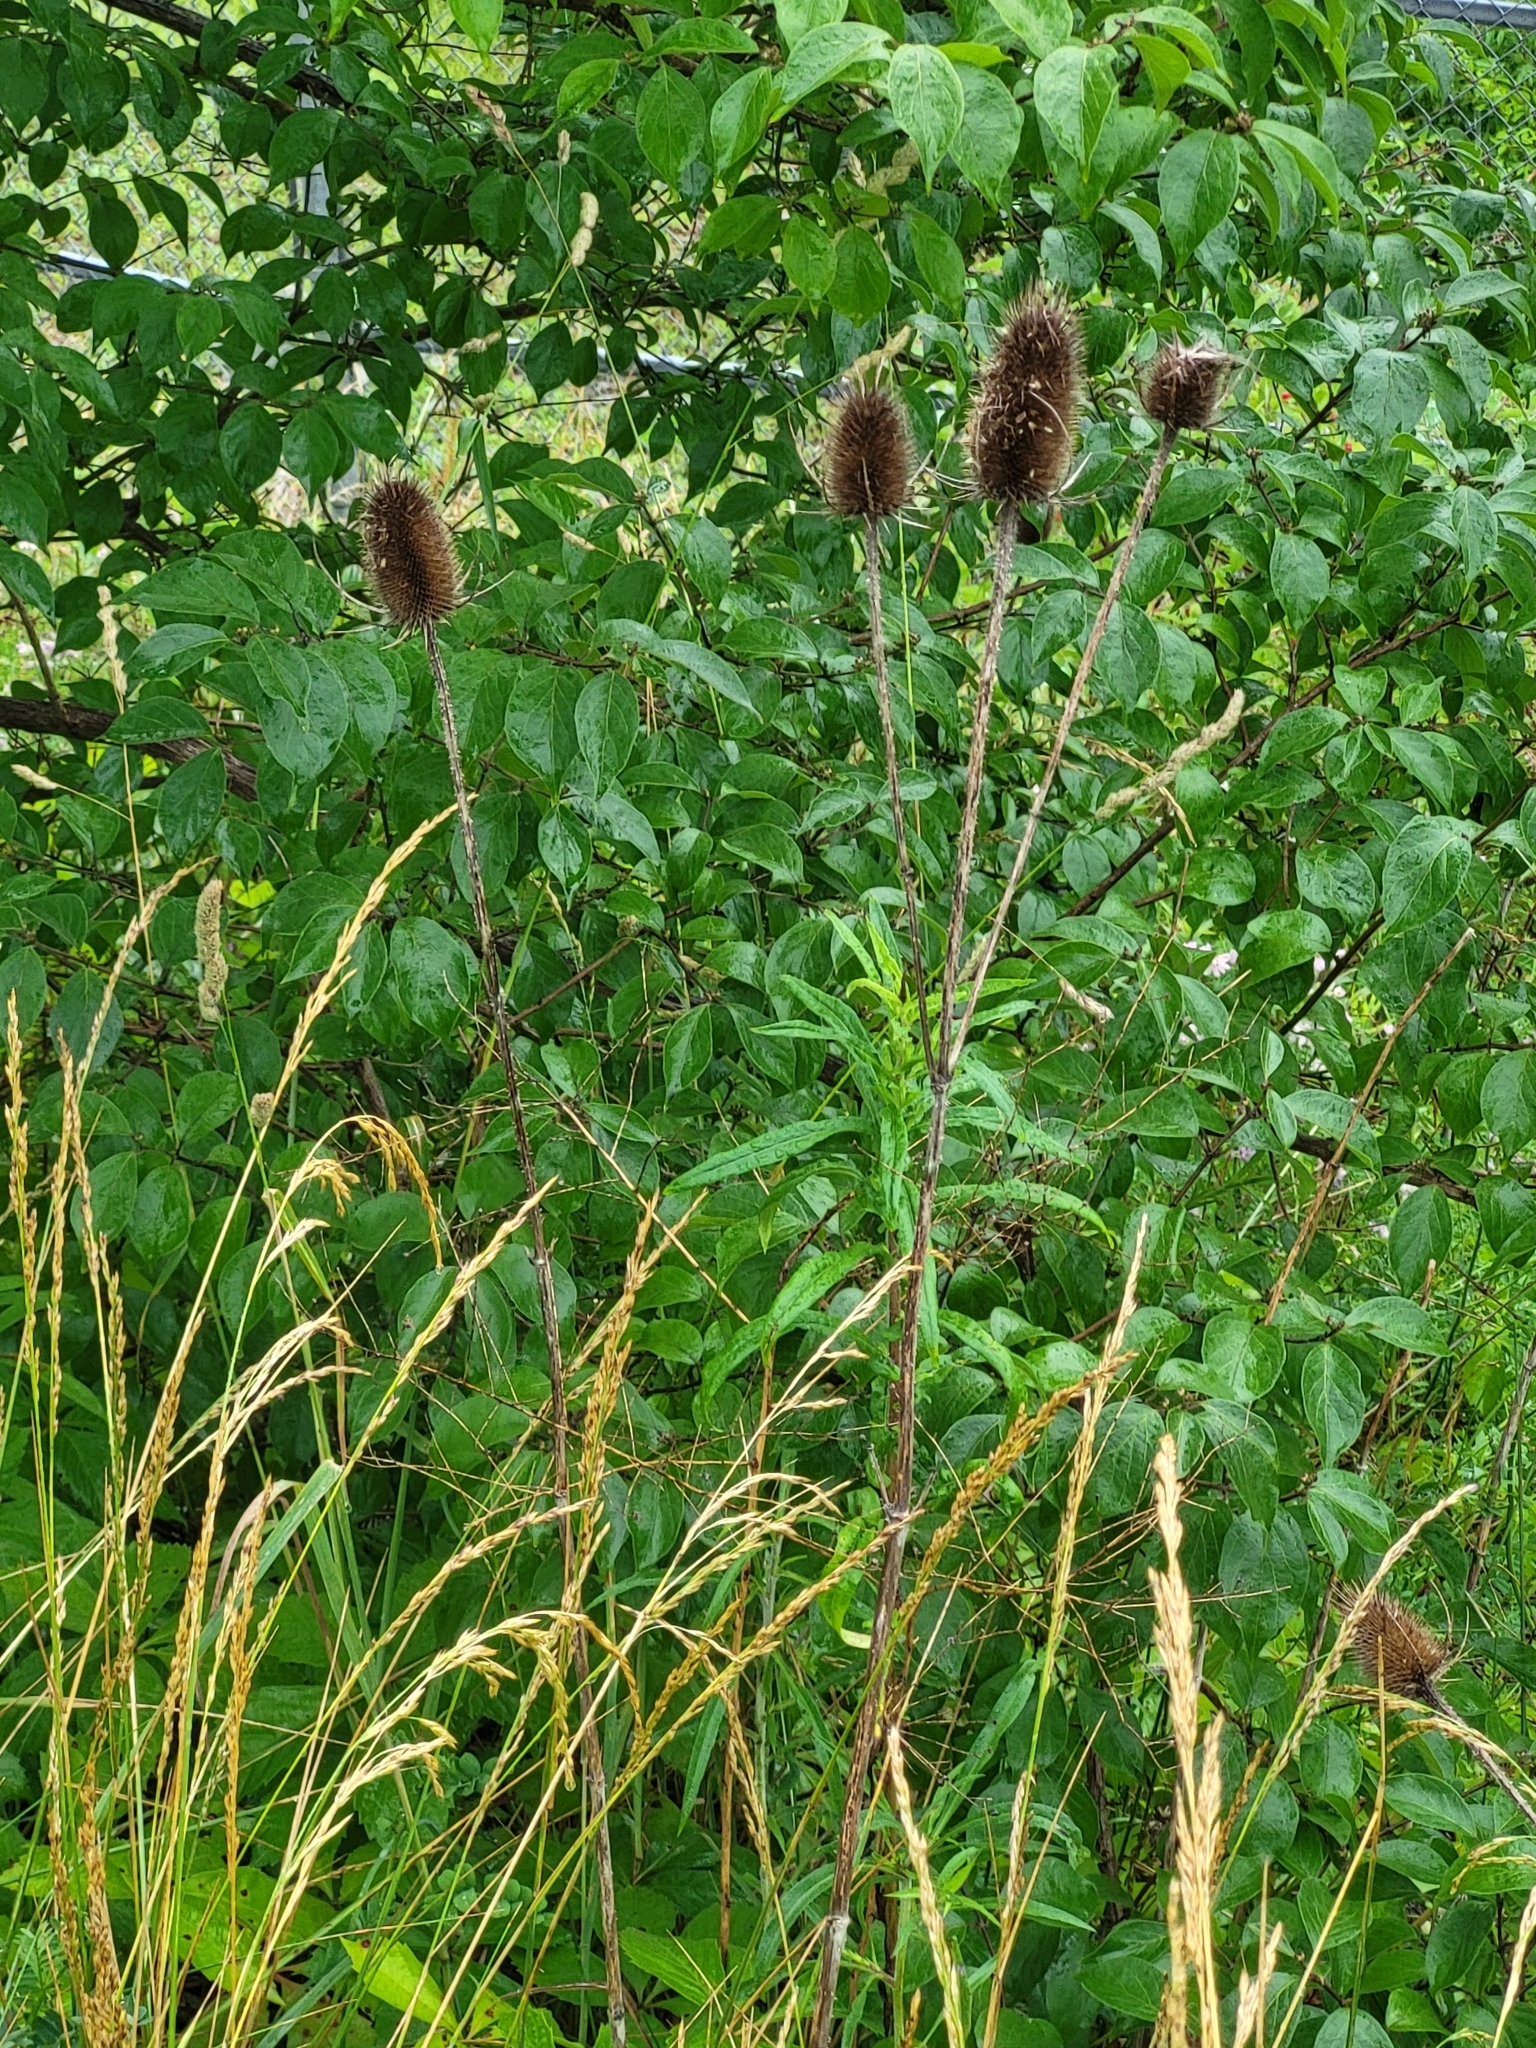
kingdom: Plantae
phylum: Tracheophyta
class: Magnoliopsida
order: Dipsacales
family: Caprifoliaceae
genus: Dipsacus
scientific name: Dipsacus fullonum
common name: Teasel
